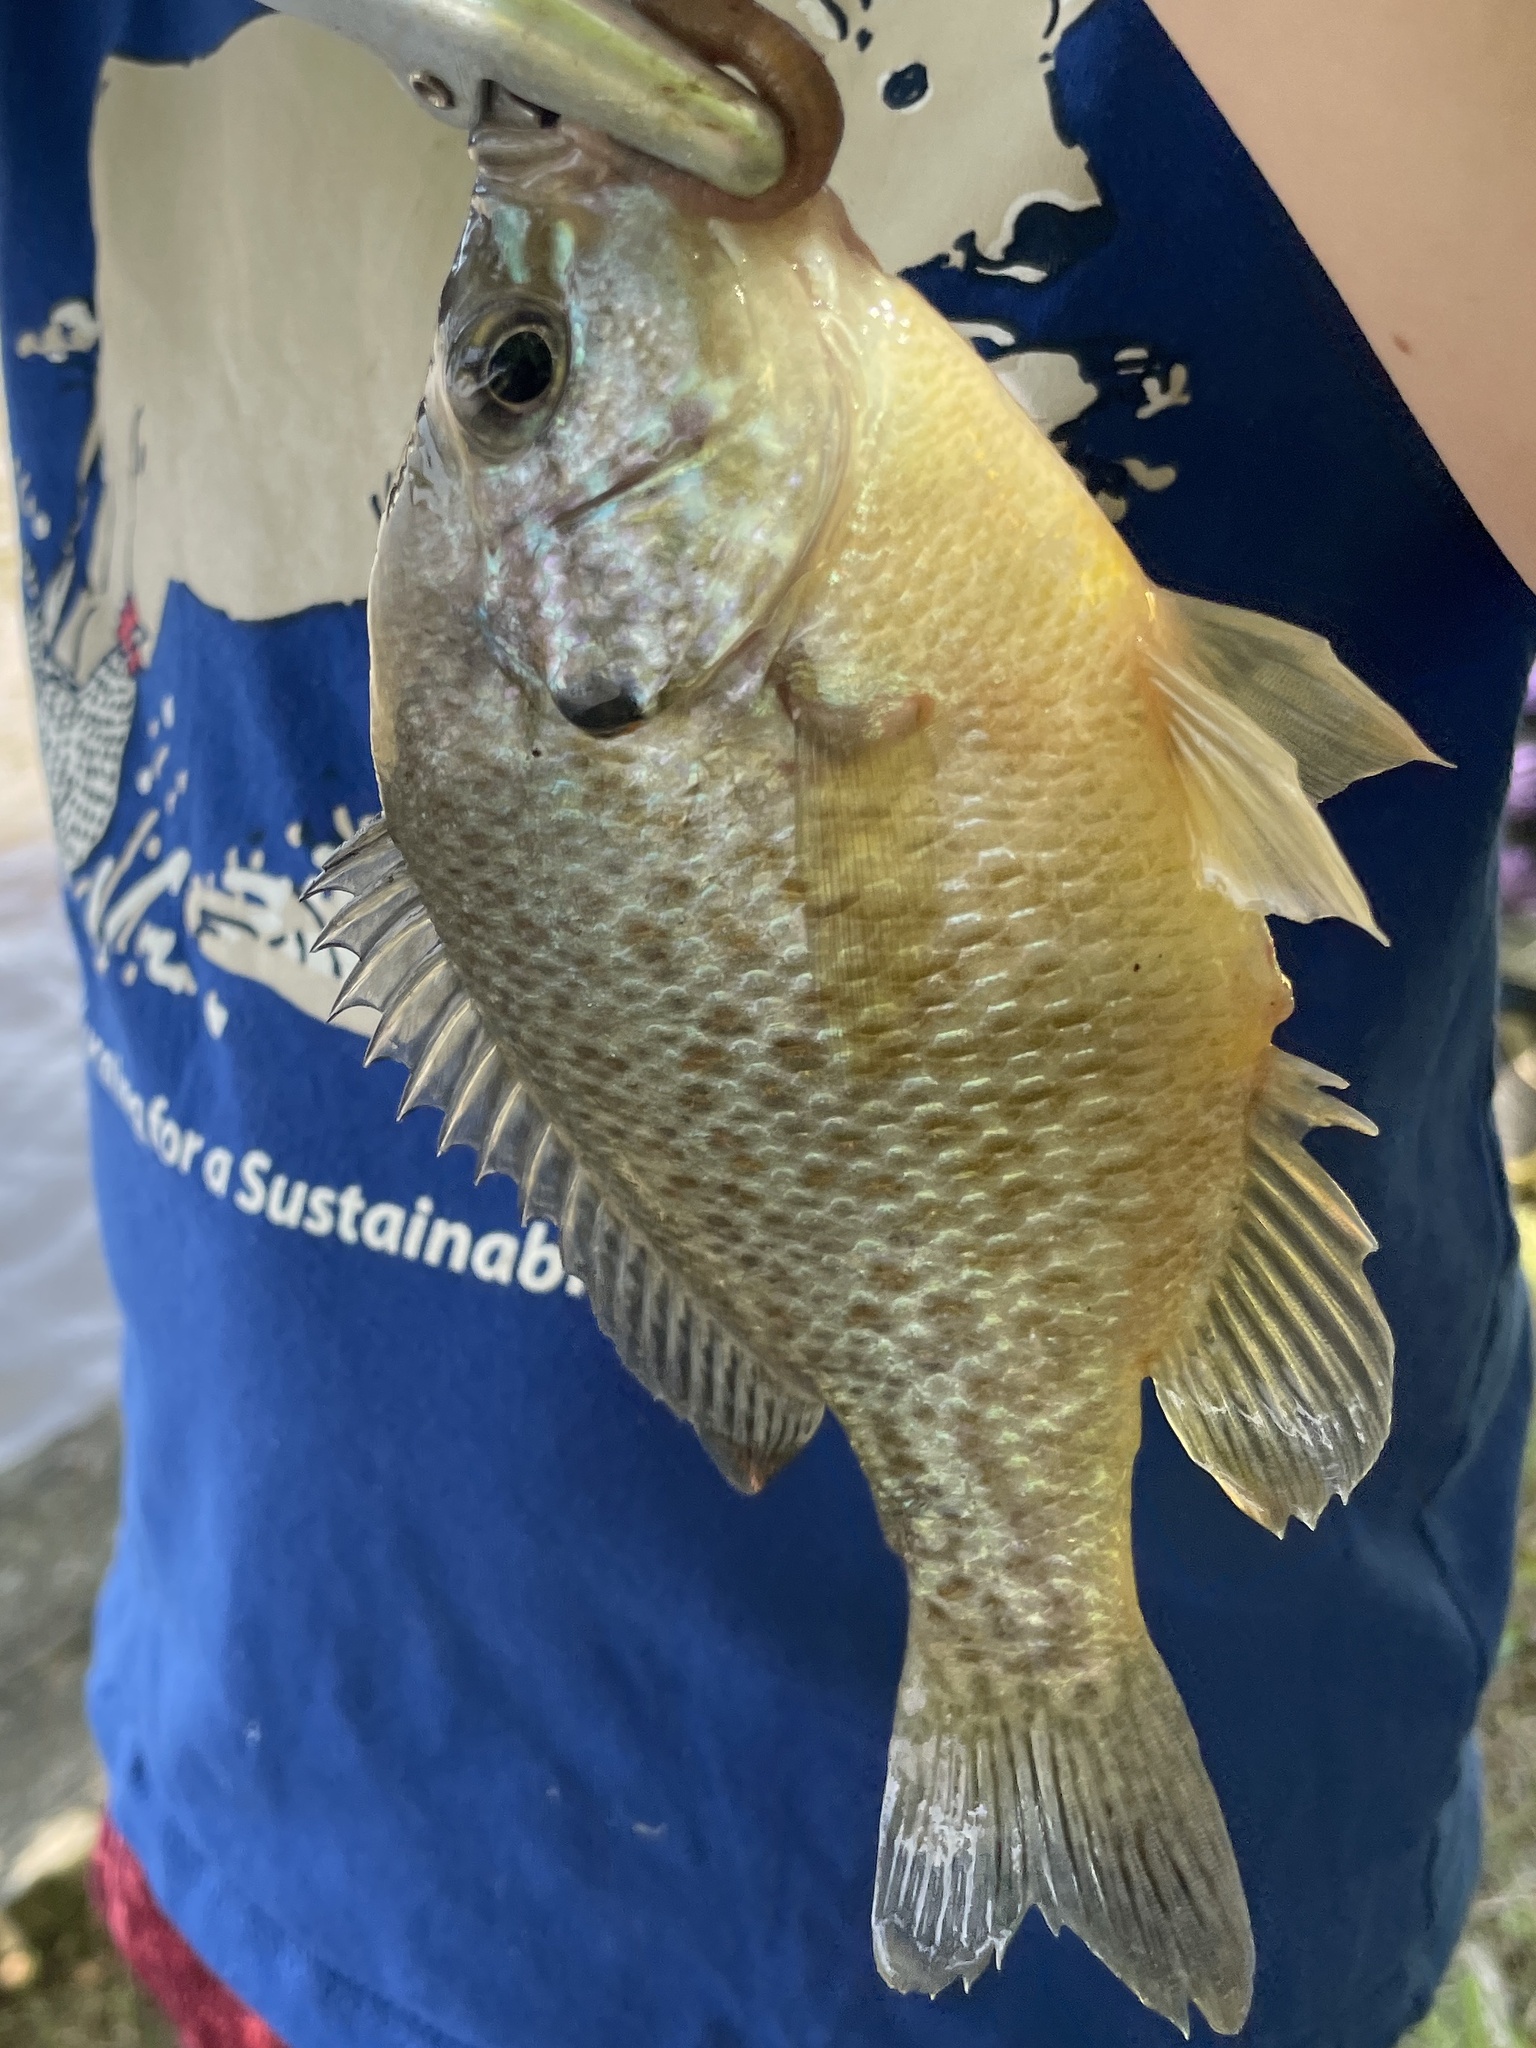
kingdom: Animalia
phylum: Chordata
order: Perciformes
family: Centrarchidae
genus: Lepomis
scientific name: Lepomis gibbosus
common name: Pumpkinseed
